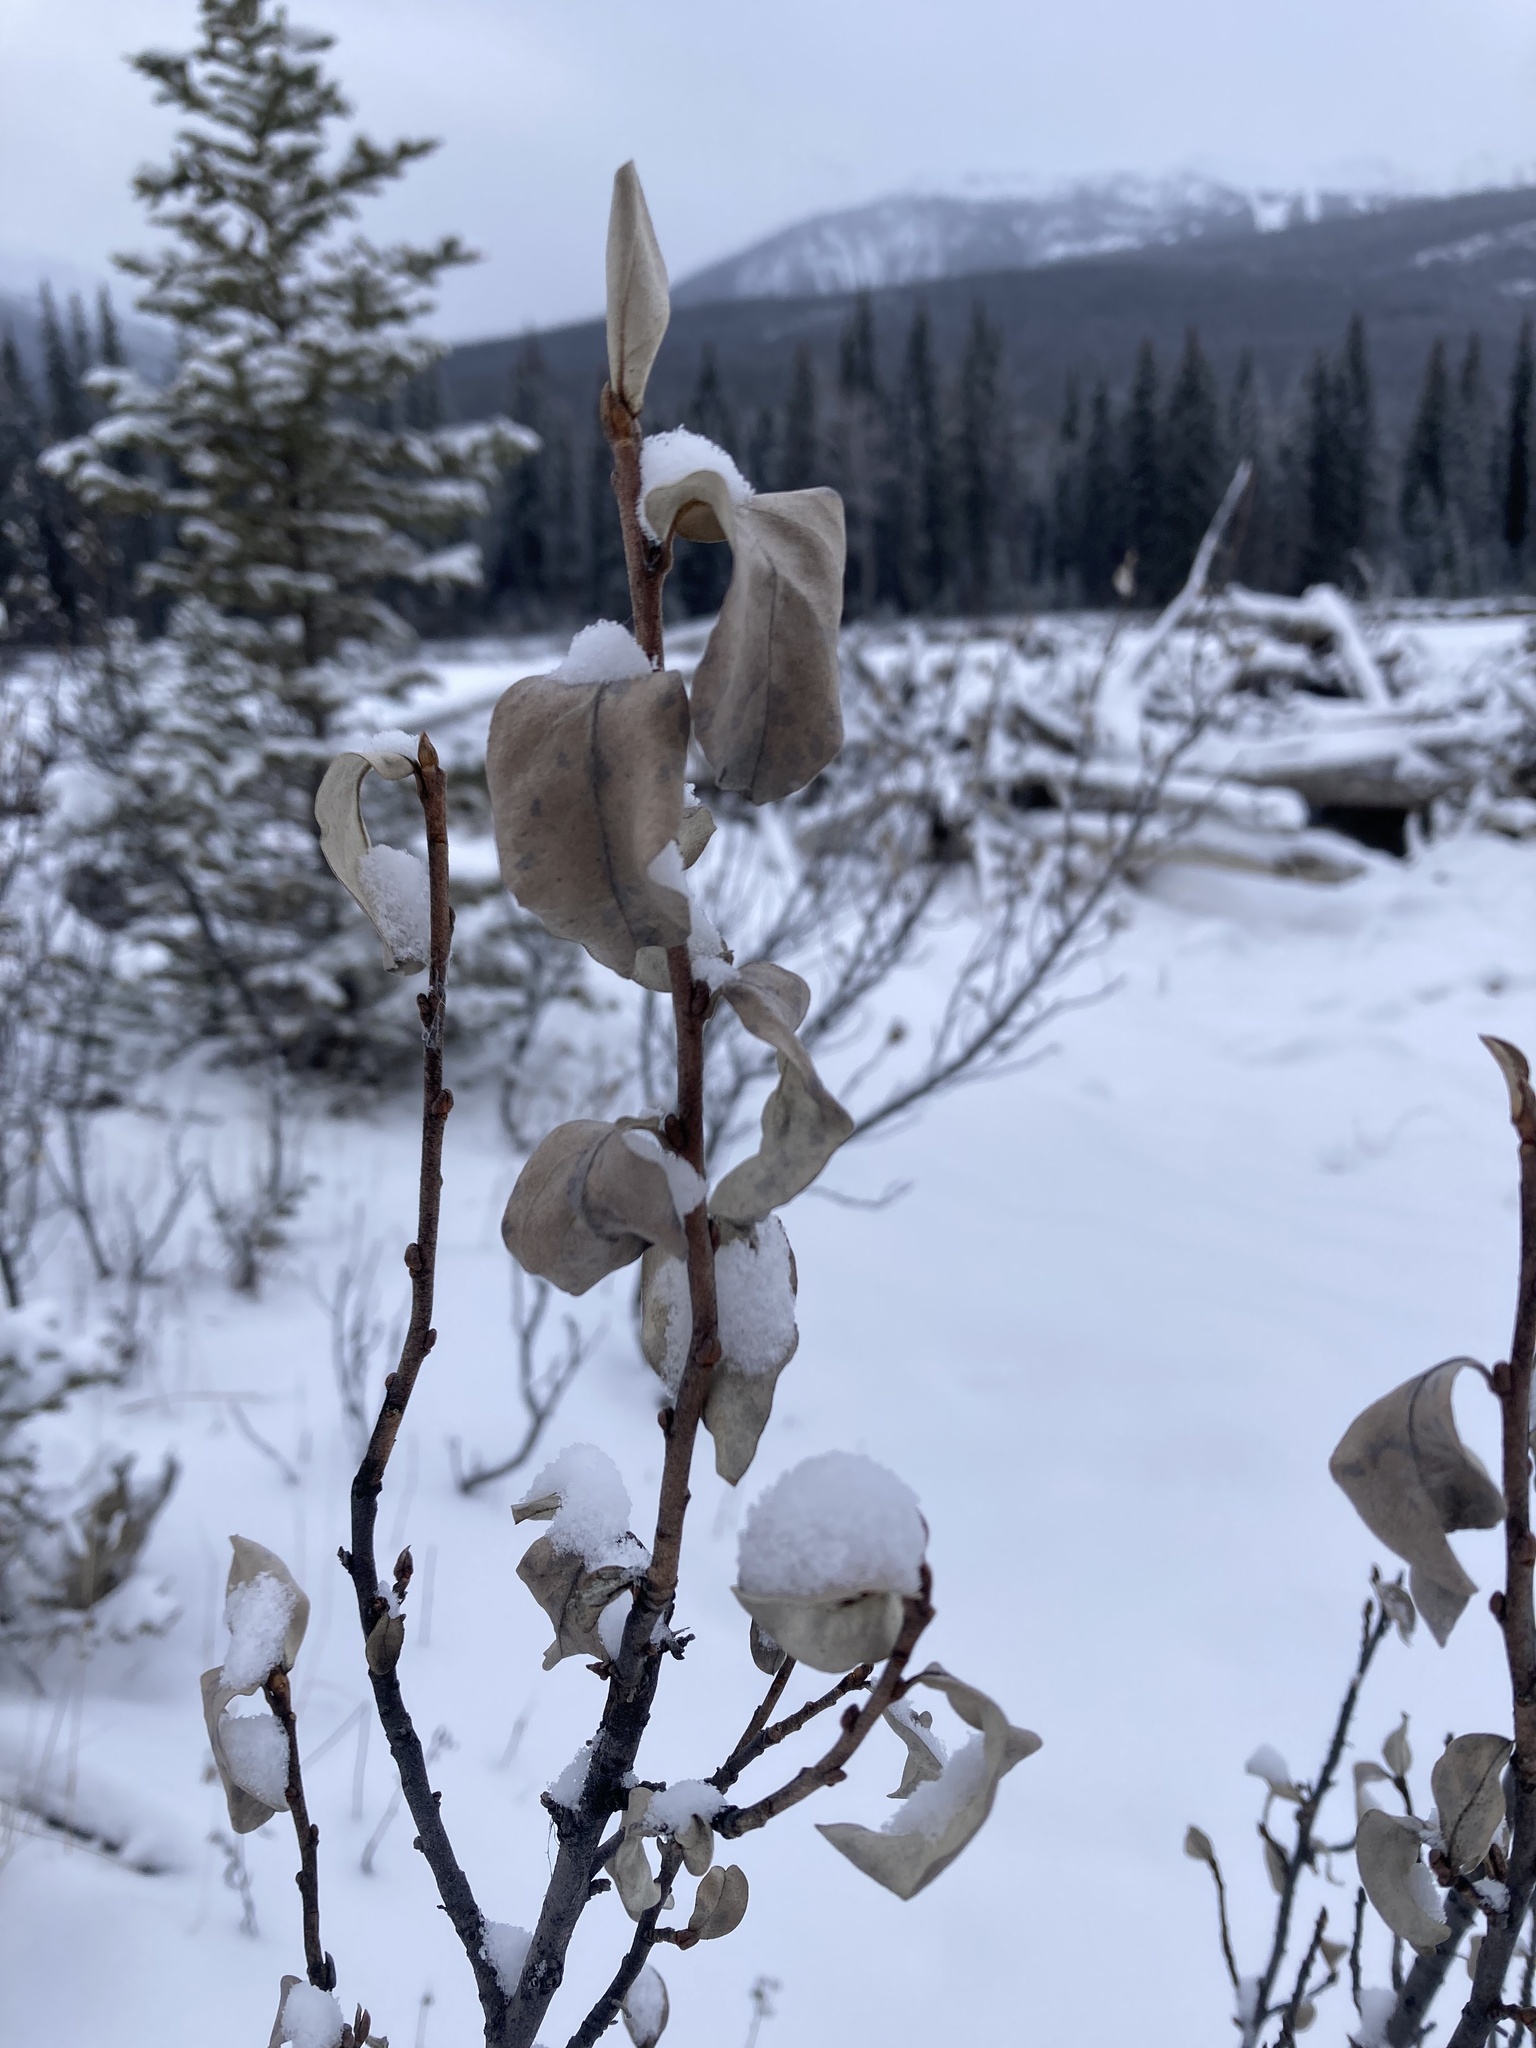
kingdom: Plantae
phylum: Tracheophyta
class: Magnoliopsida
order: Rosales
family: Elaeagnaceae
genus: Elaeagnus
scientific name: Elaeagnus commutata
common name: Silverberry
